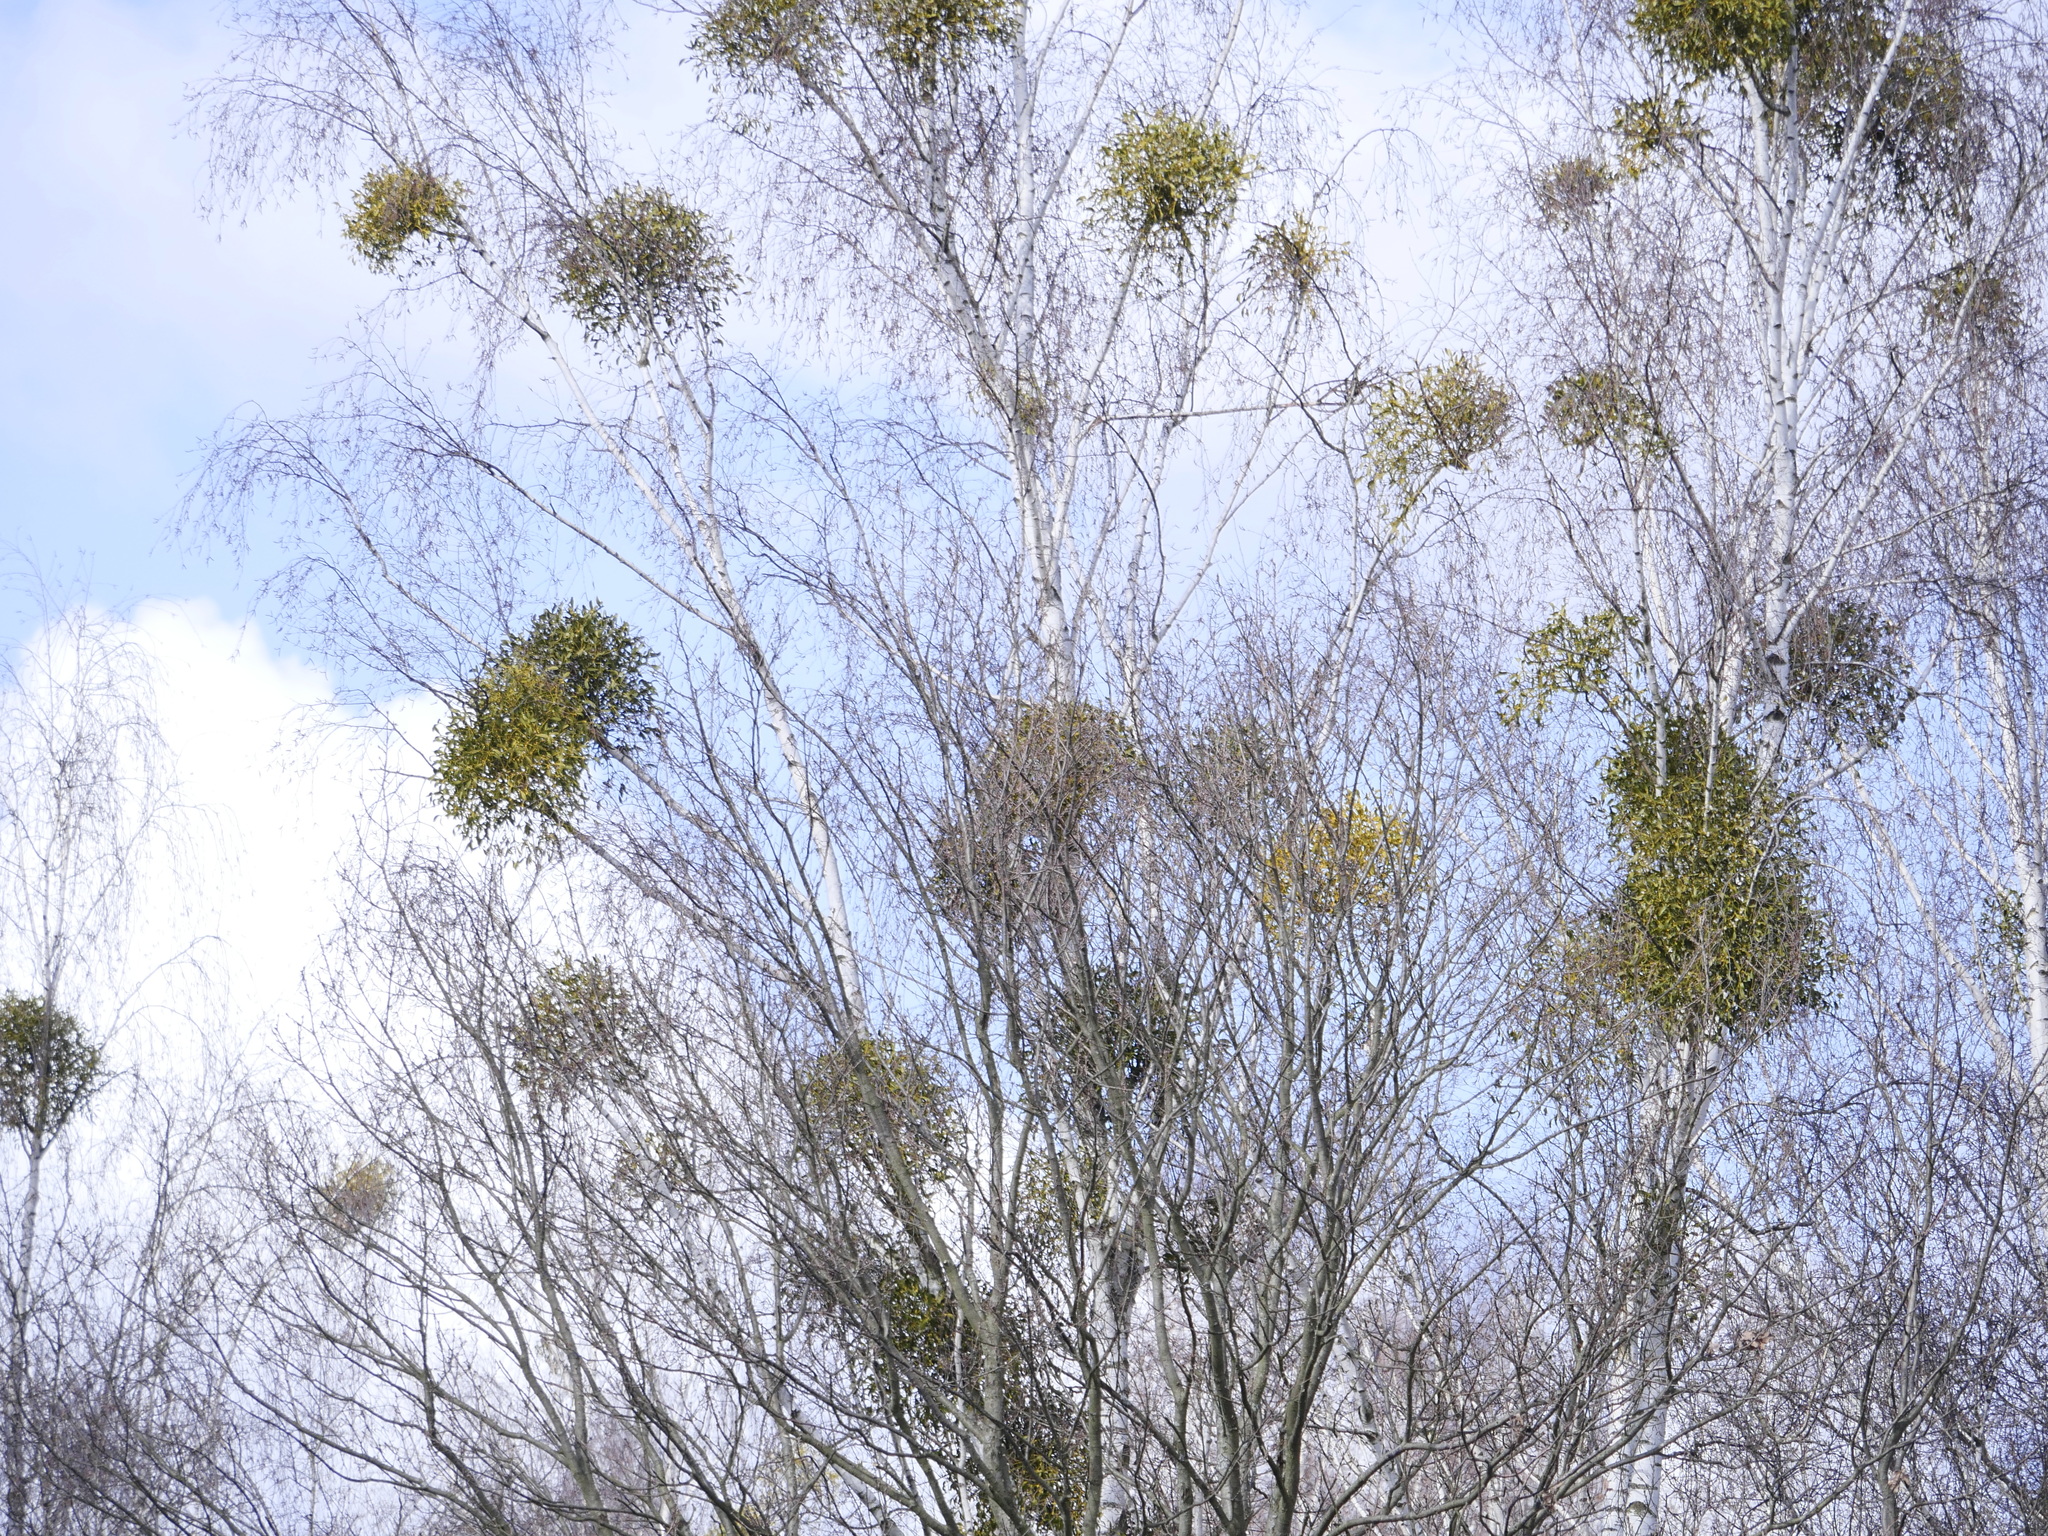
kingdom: Plantae
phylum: Tracheophyta
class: Magnoliopsida
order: Santalales
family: Viscaceae
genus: Viscum
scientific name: Viscum album
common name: Mistletoe
